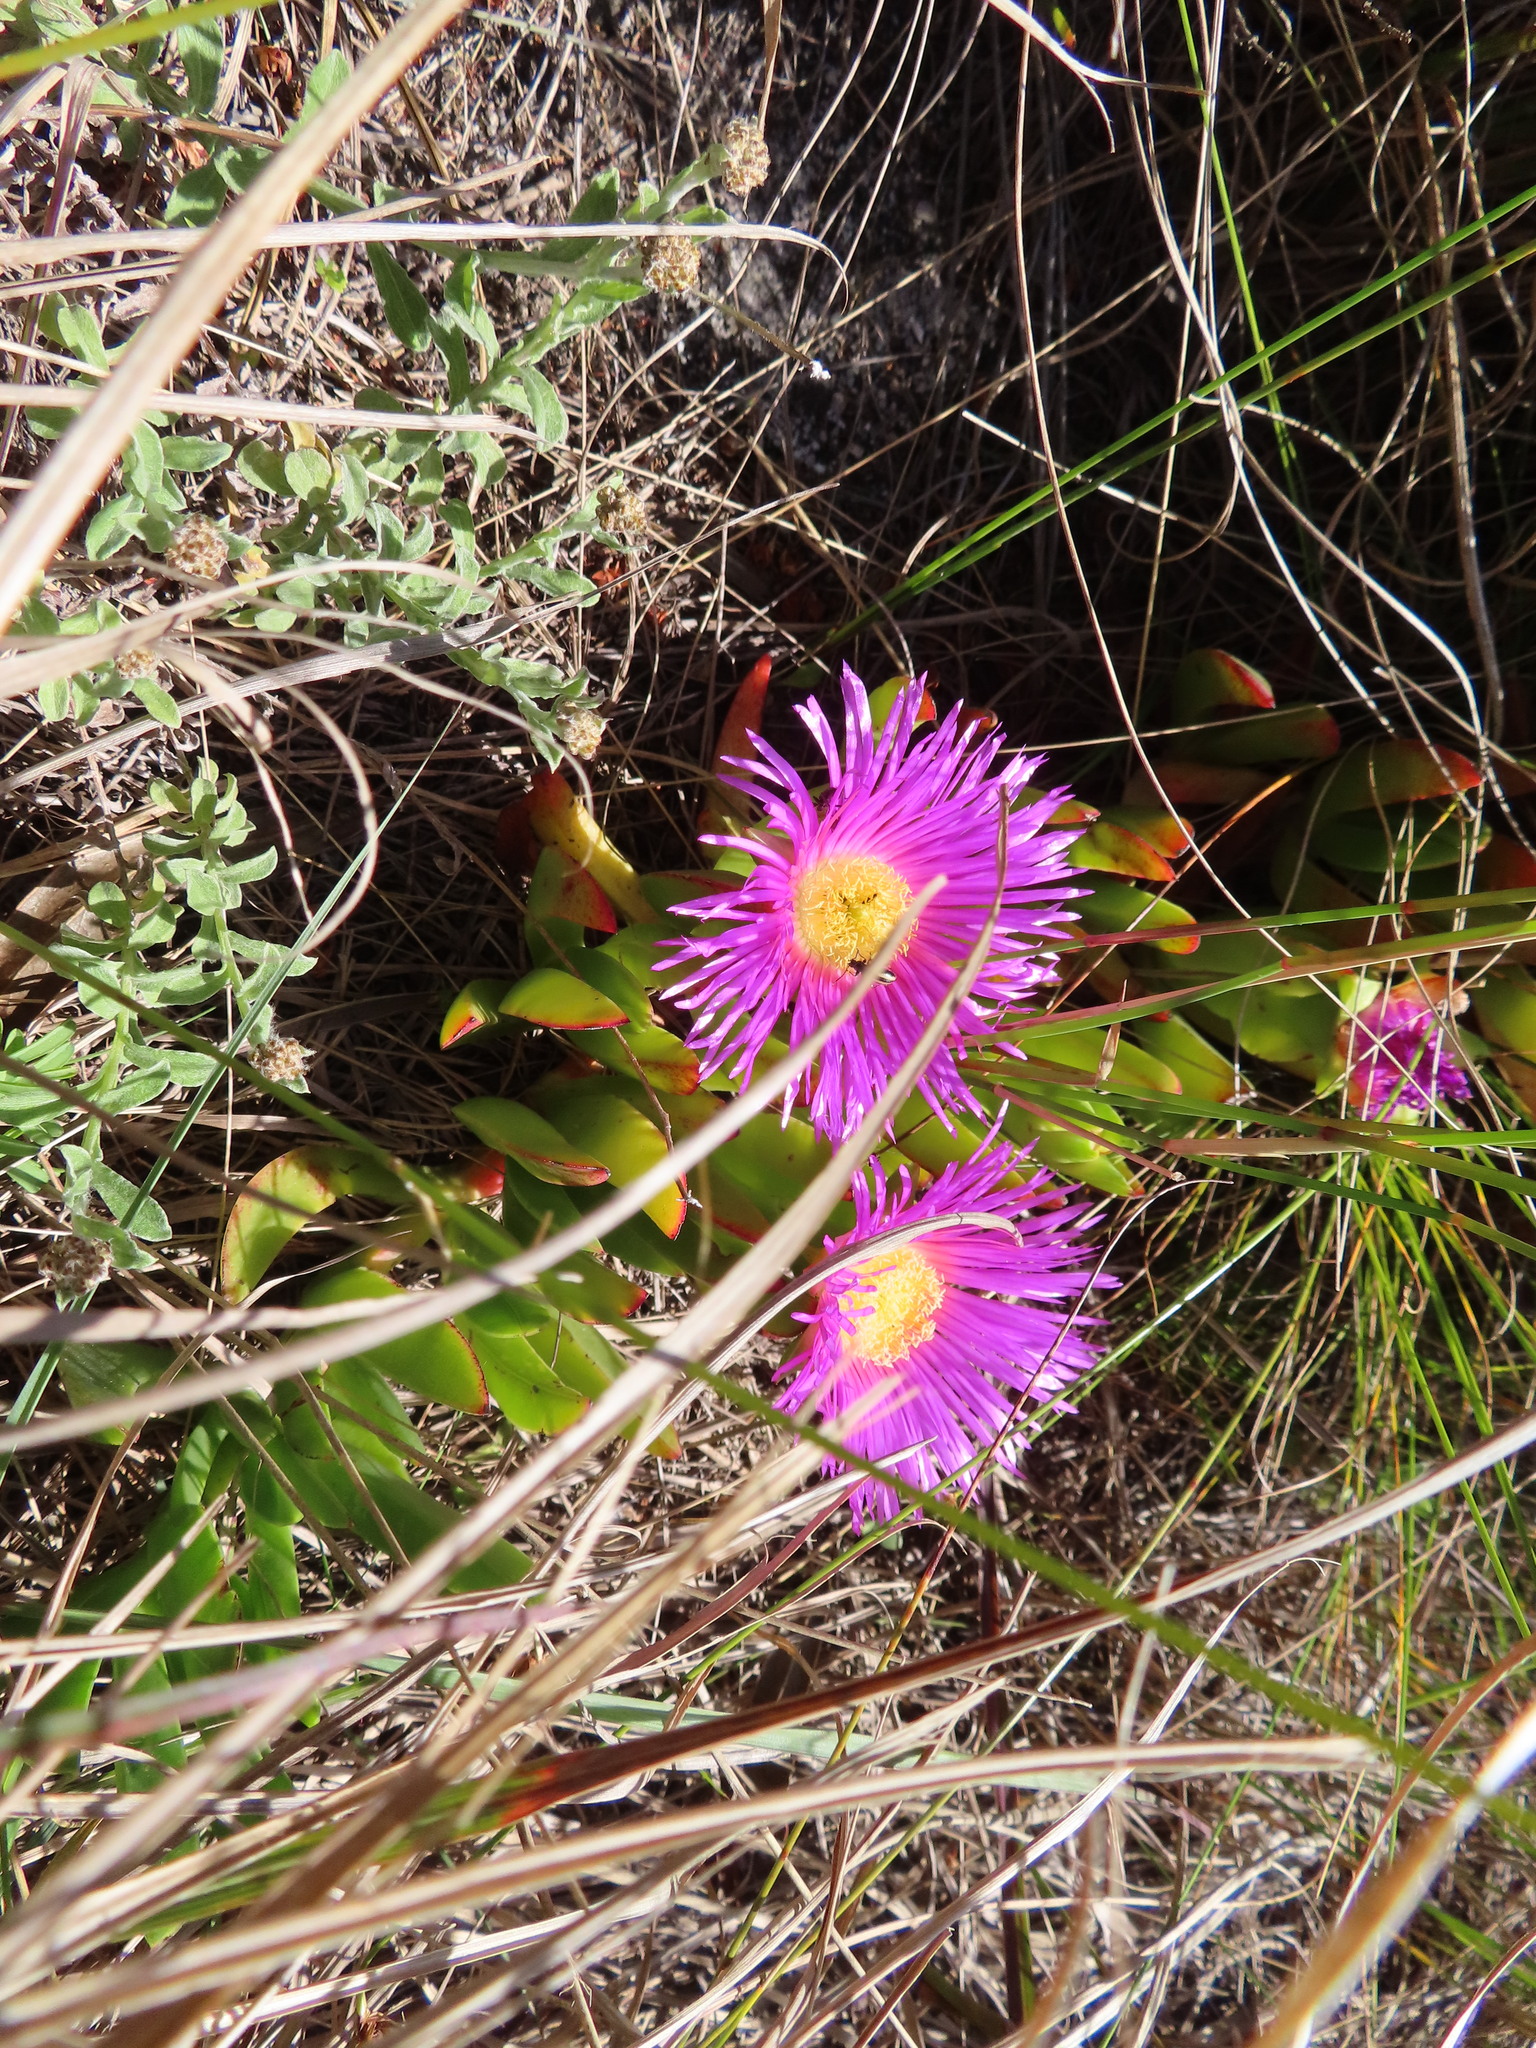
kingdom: Plantae
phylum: Tracheophyta
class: Magnoliopsida
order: Caryophyllales
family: Aizoaceae
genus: Carpobrotus
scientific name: Carpobrotus mellei
